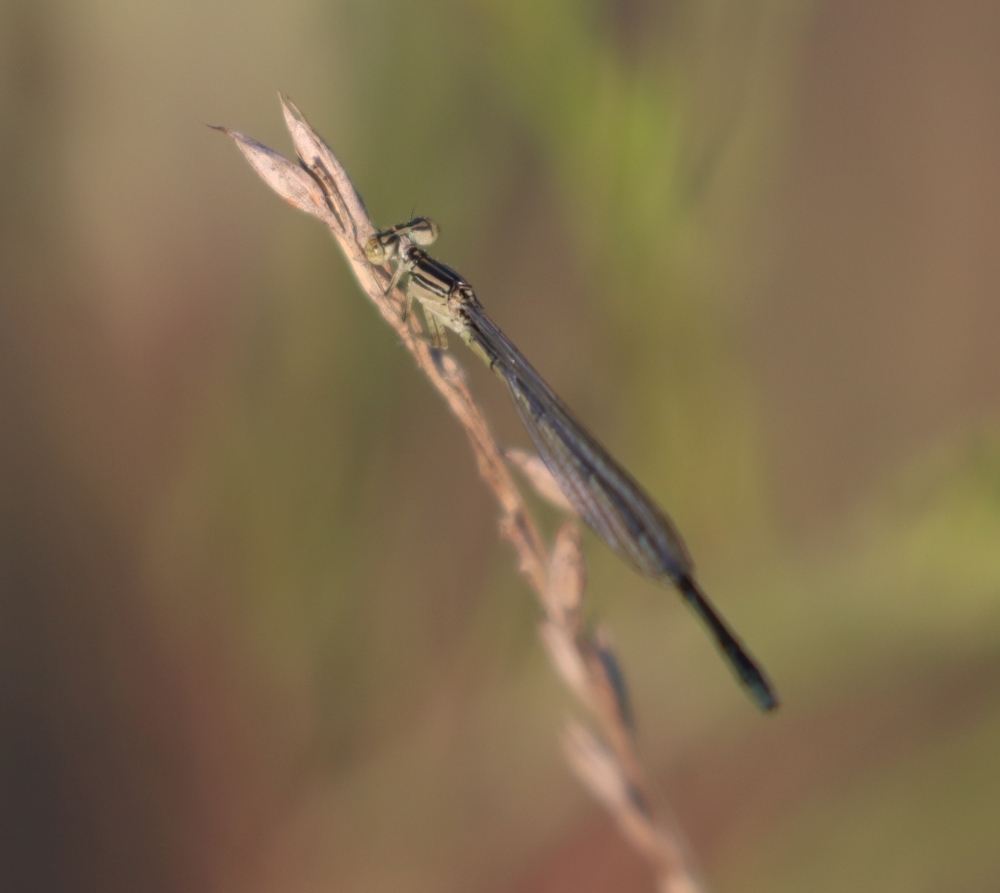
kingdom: Animalia
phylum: Arthropoda
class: Insecta
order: Odonata
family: Coenagrionidae
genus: Enallagma
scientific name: Enallagma basidens
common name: Double-striped bluet
